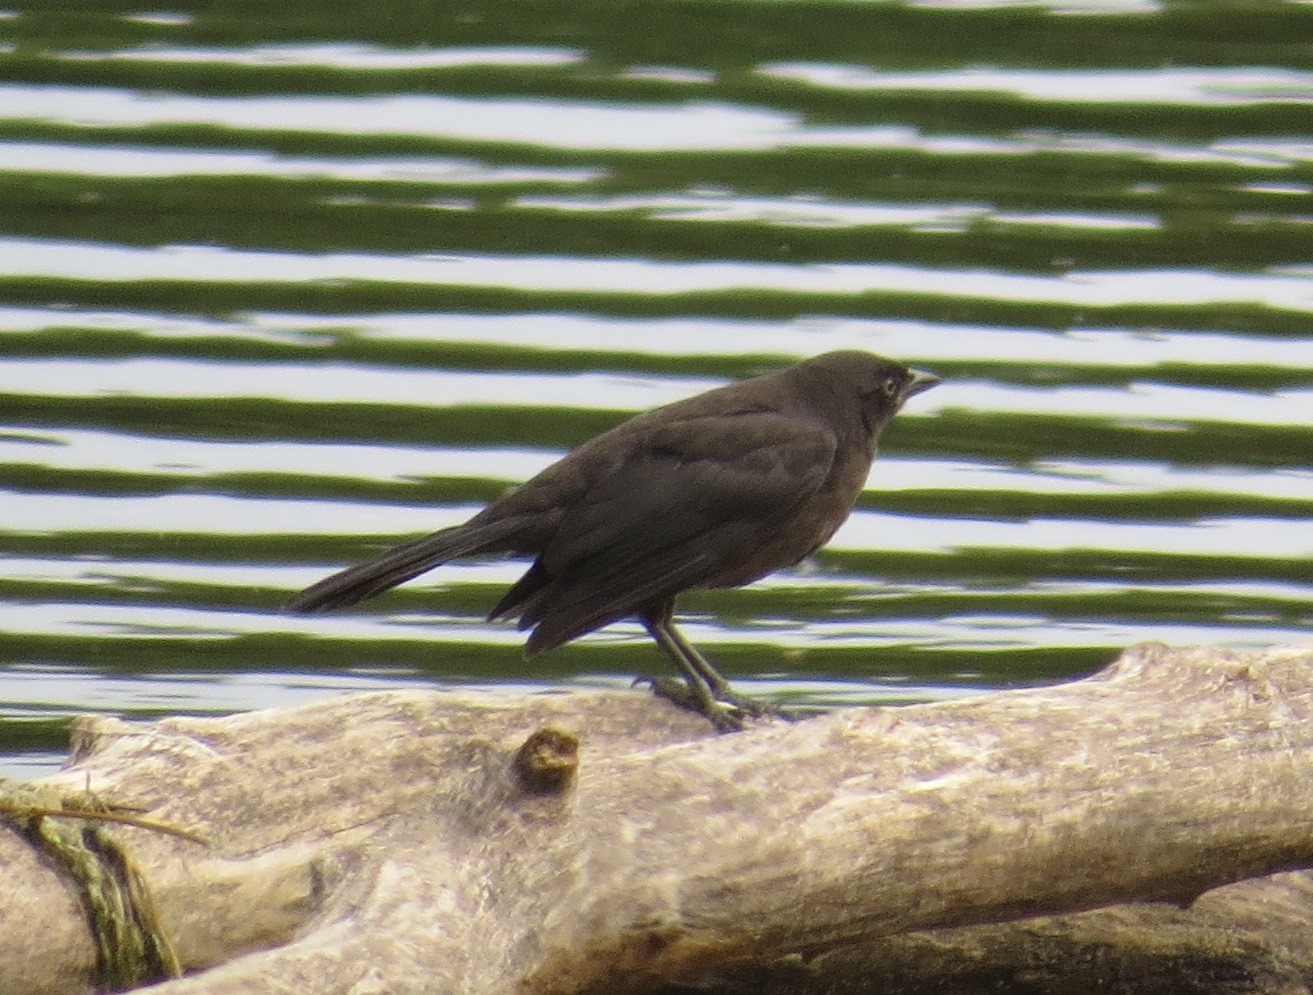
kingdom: Animalia
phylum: Chordata
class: Aves
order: Passeriformes
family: Icteridae
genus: Quiscalus
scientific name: Quiscalus quiscula
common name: Common grackle
